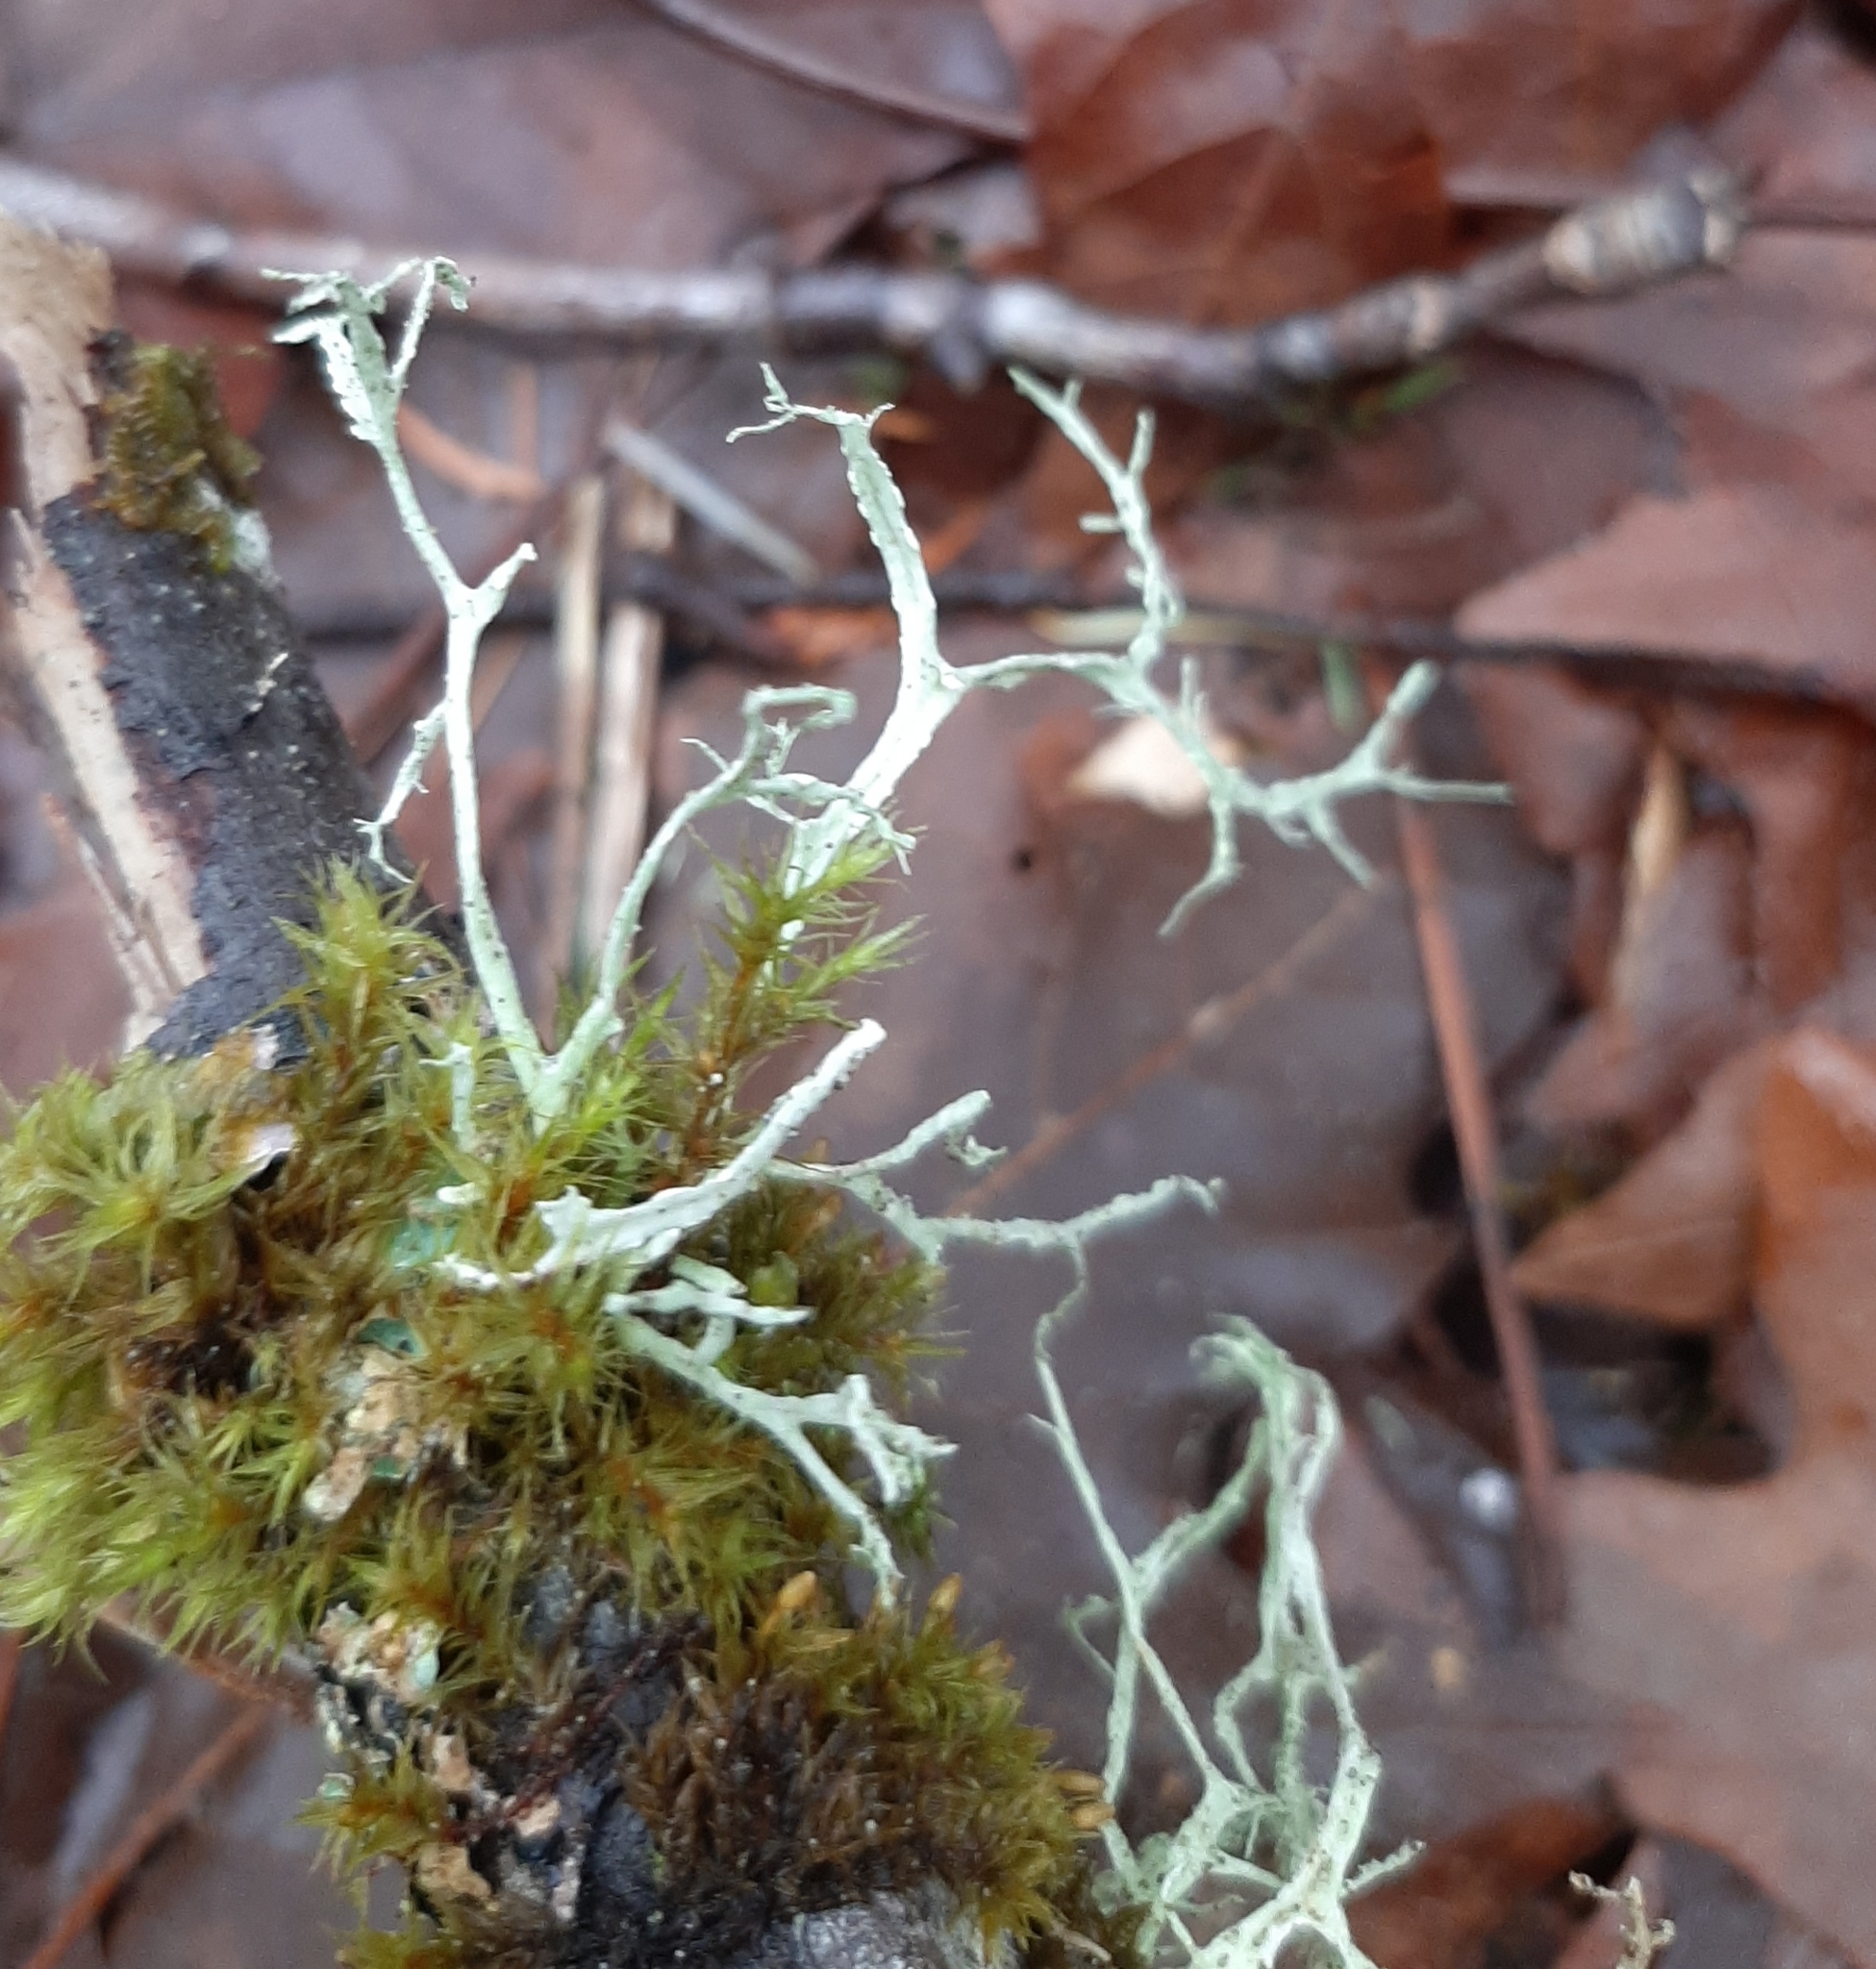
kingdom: Fungi
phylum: Ascomycota
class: Lecanoromycetes
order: Lecanorales
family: Ramalinaceae
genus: Ramalina
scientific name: Ramalina farinacea
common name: Farinose cartilage lichen
